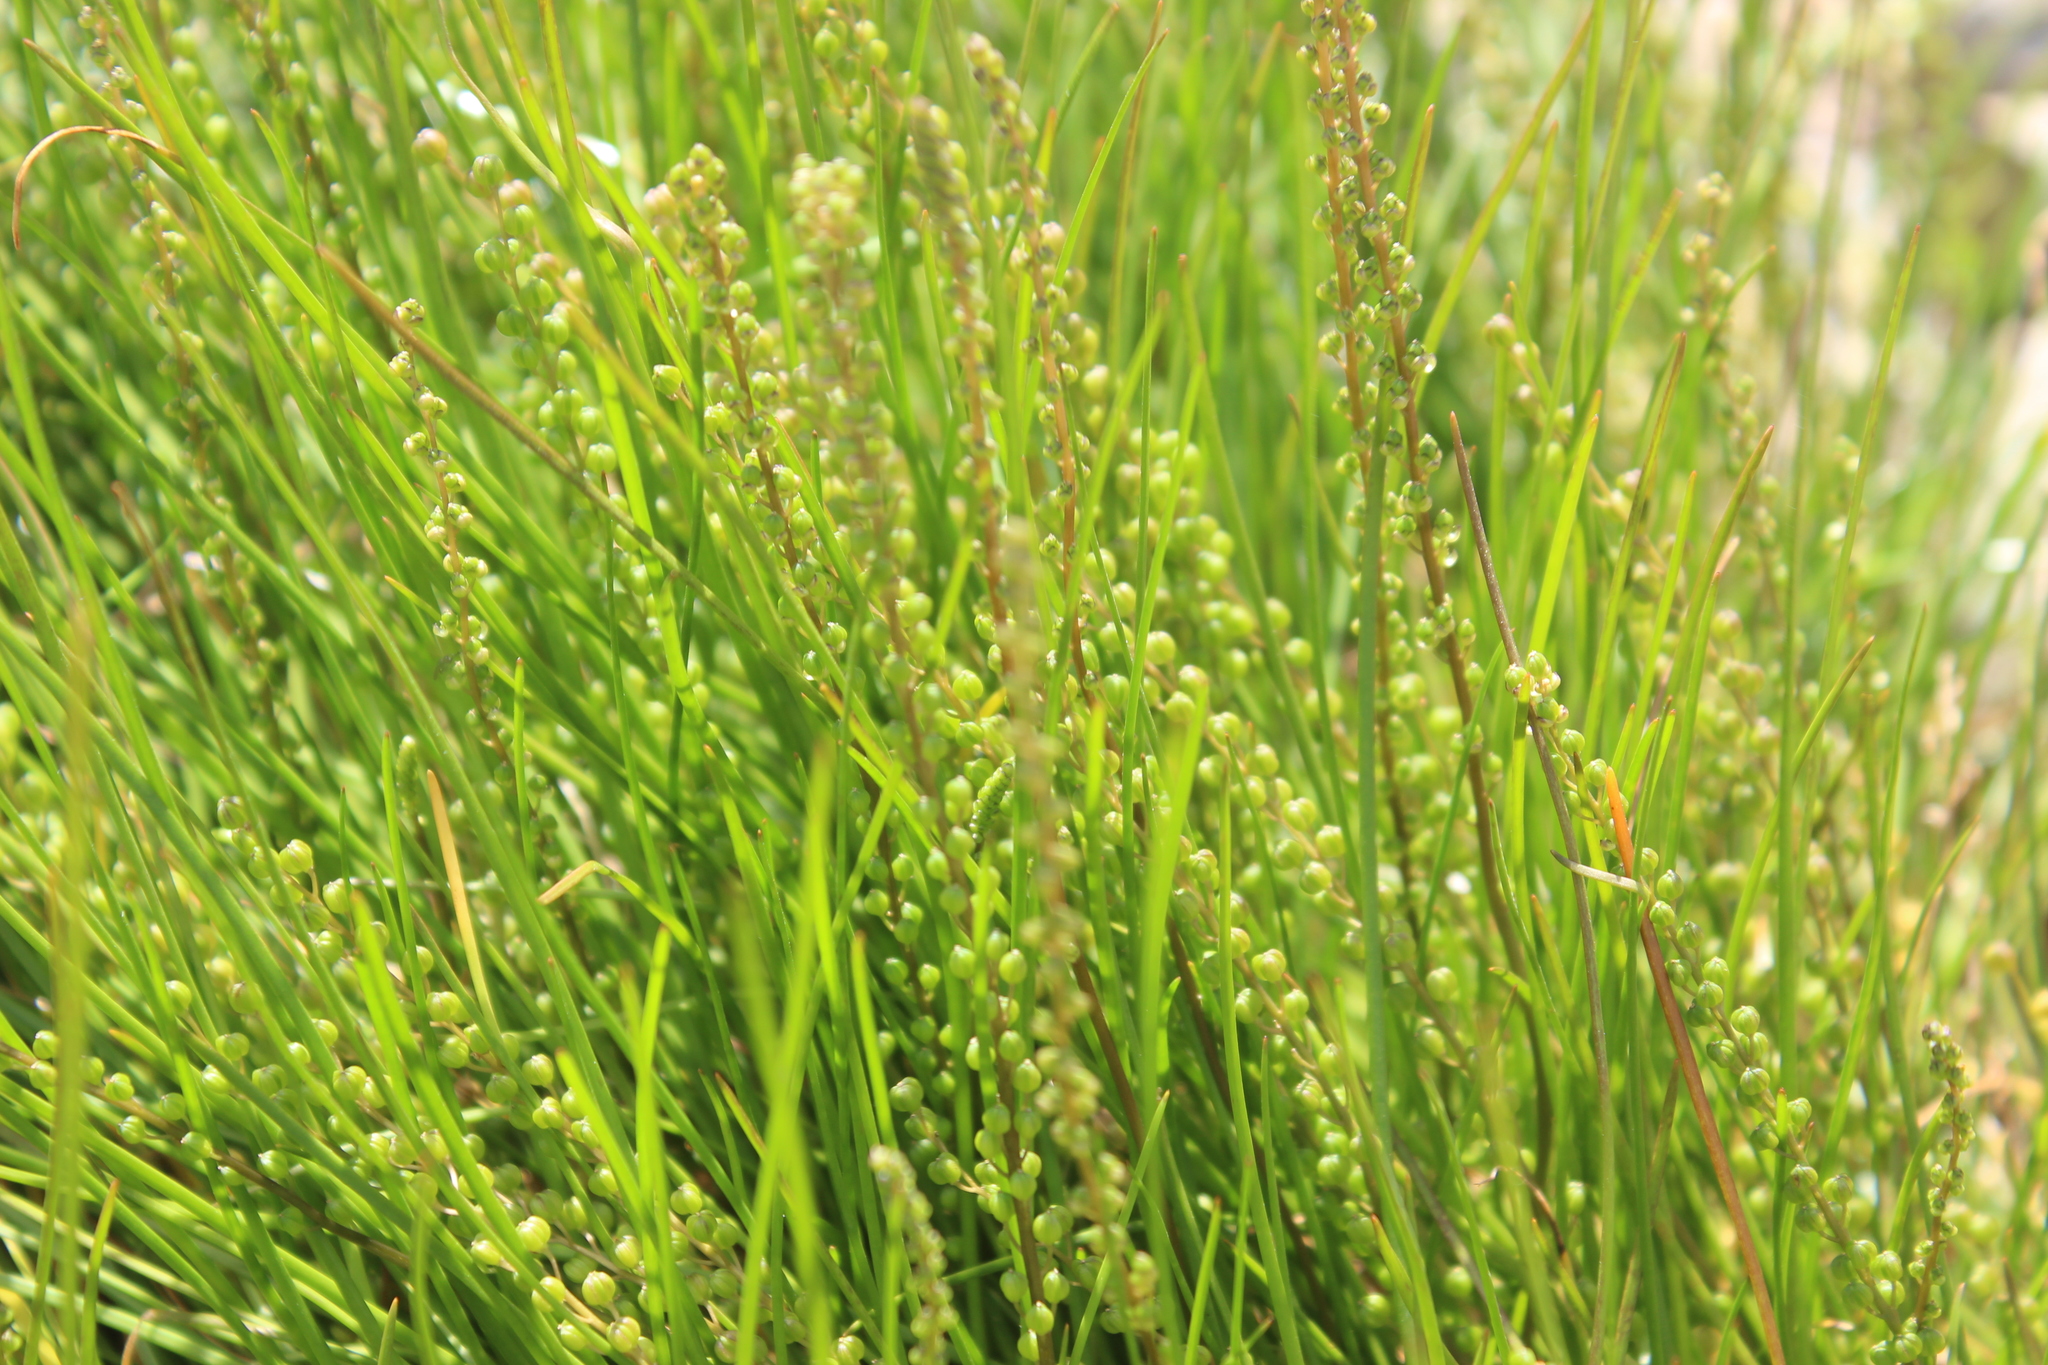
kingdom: Plantae
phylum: Tracheophyta
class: Liliopsida
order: Alismatales
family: Juncaginaceae
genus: Triglochin
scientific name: Triglochin striata
